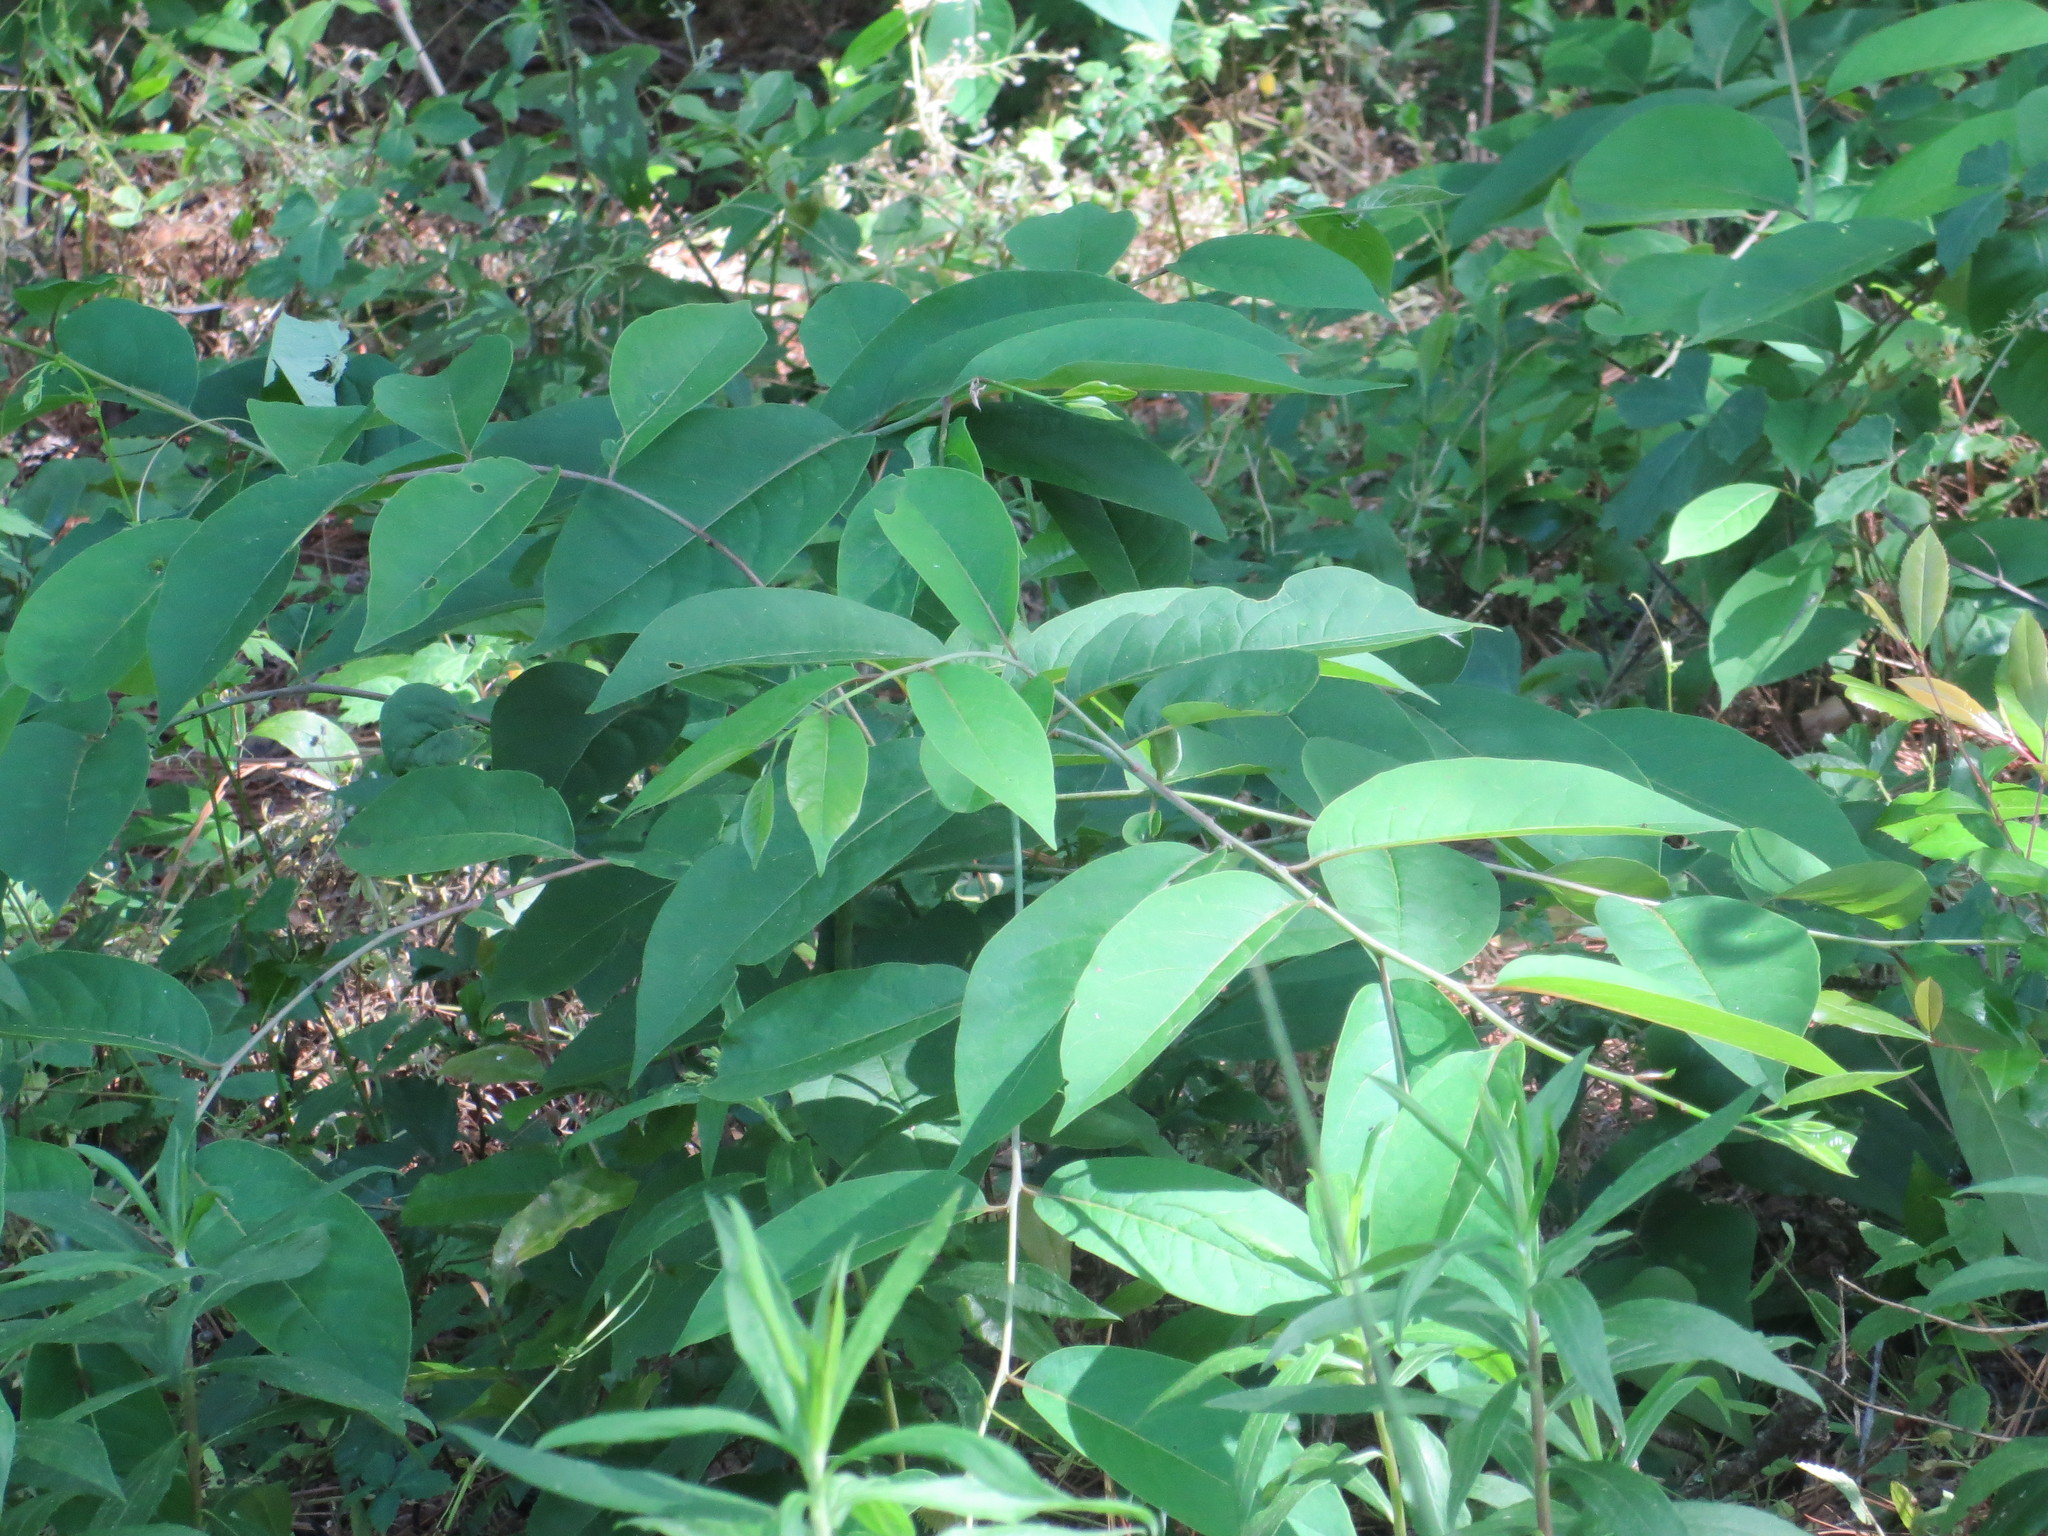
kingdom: Plantae
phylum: Tracheophyta
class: Magnoliopsida
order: Ericales
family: Ebenaceae
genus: Diospyros
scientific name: Diospyros virginiana
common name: Persimmon
